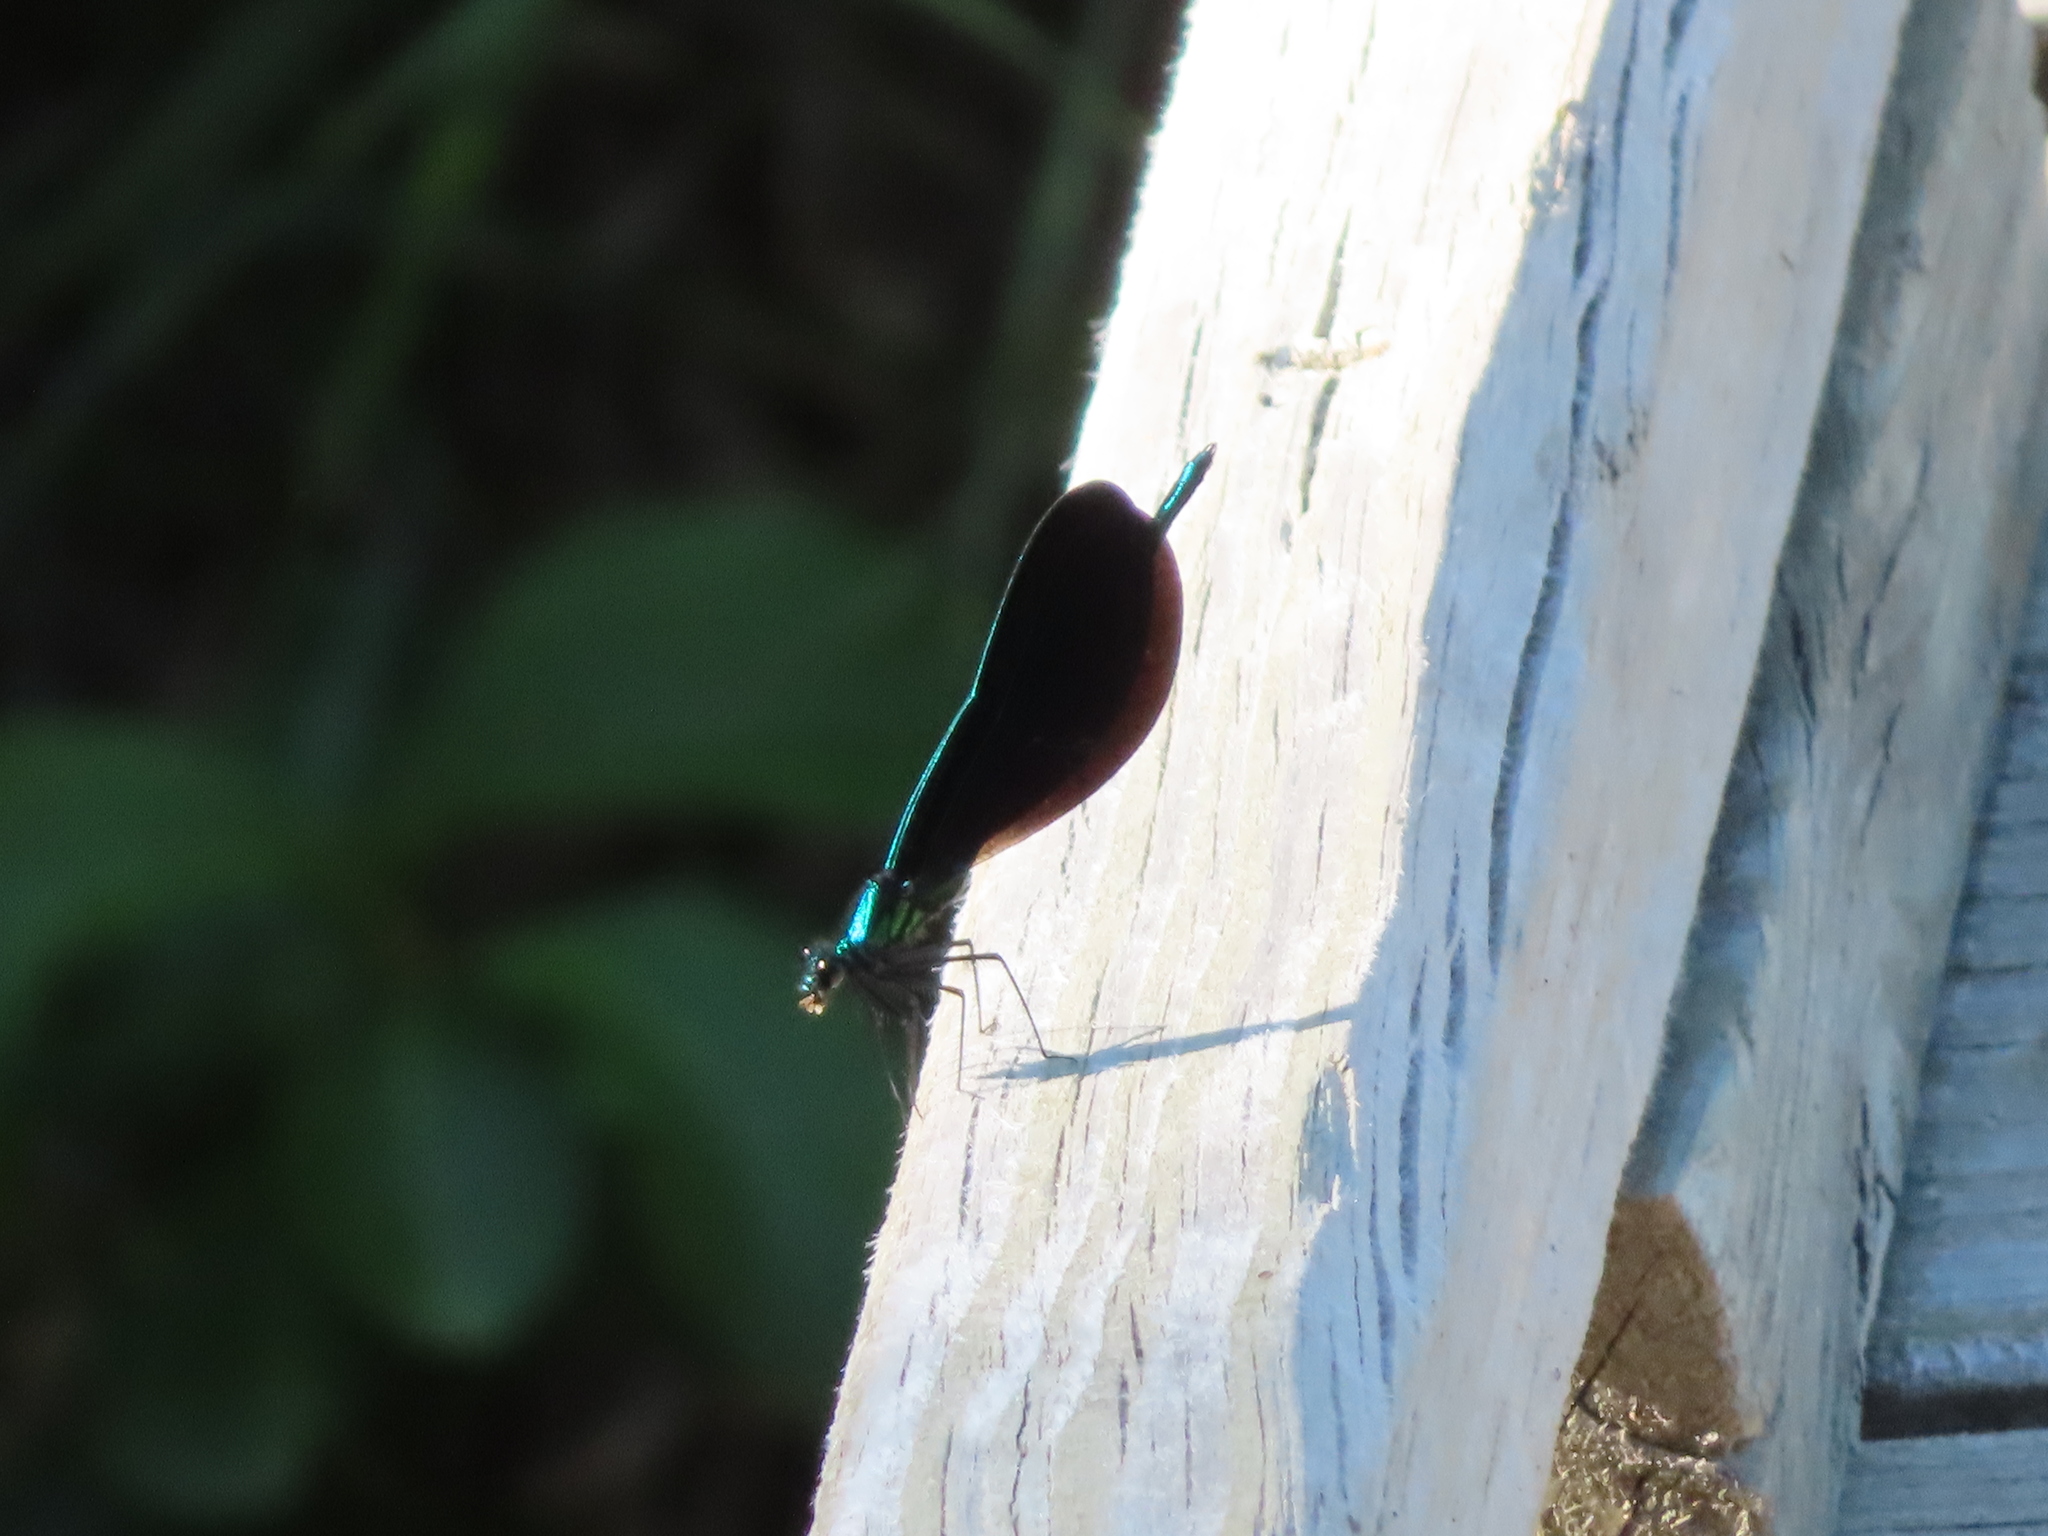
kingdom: Animalia
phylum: Arthropoda
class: Insecta
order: Odonata
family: Calopterygidae
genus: Calopteryx
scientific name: Calopteryx maculata
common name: Ebony jewelwing
